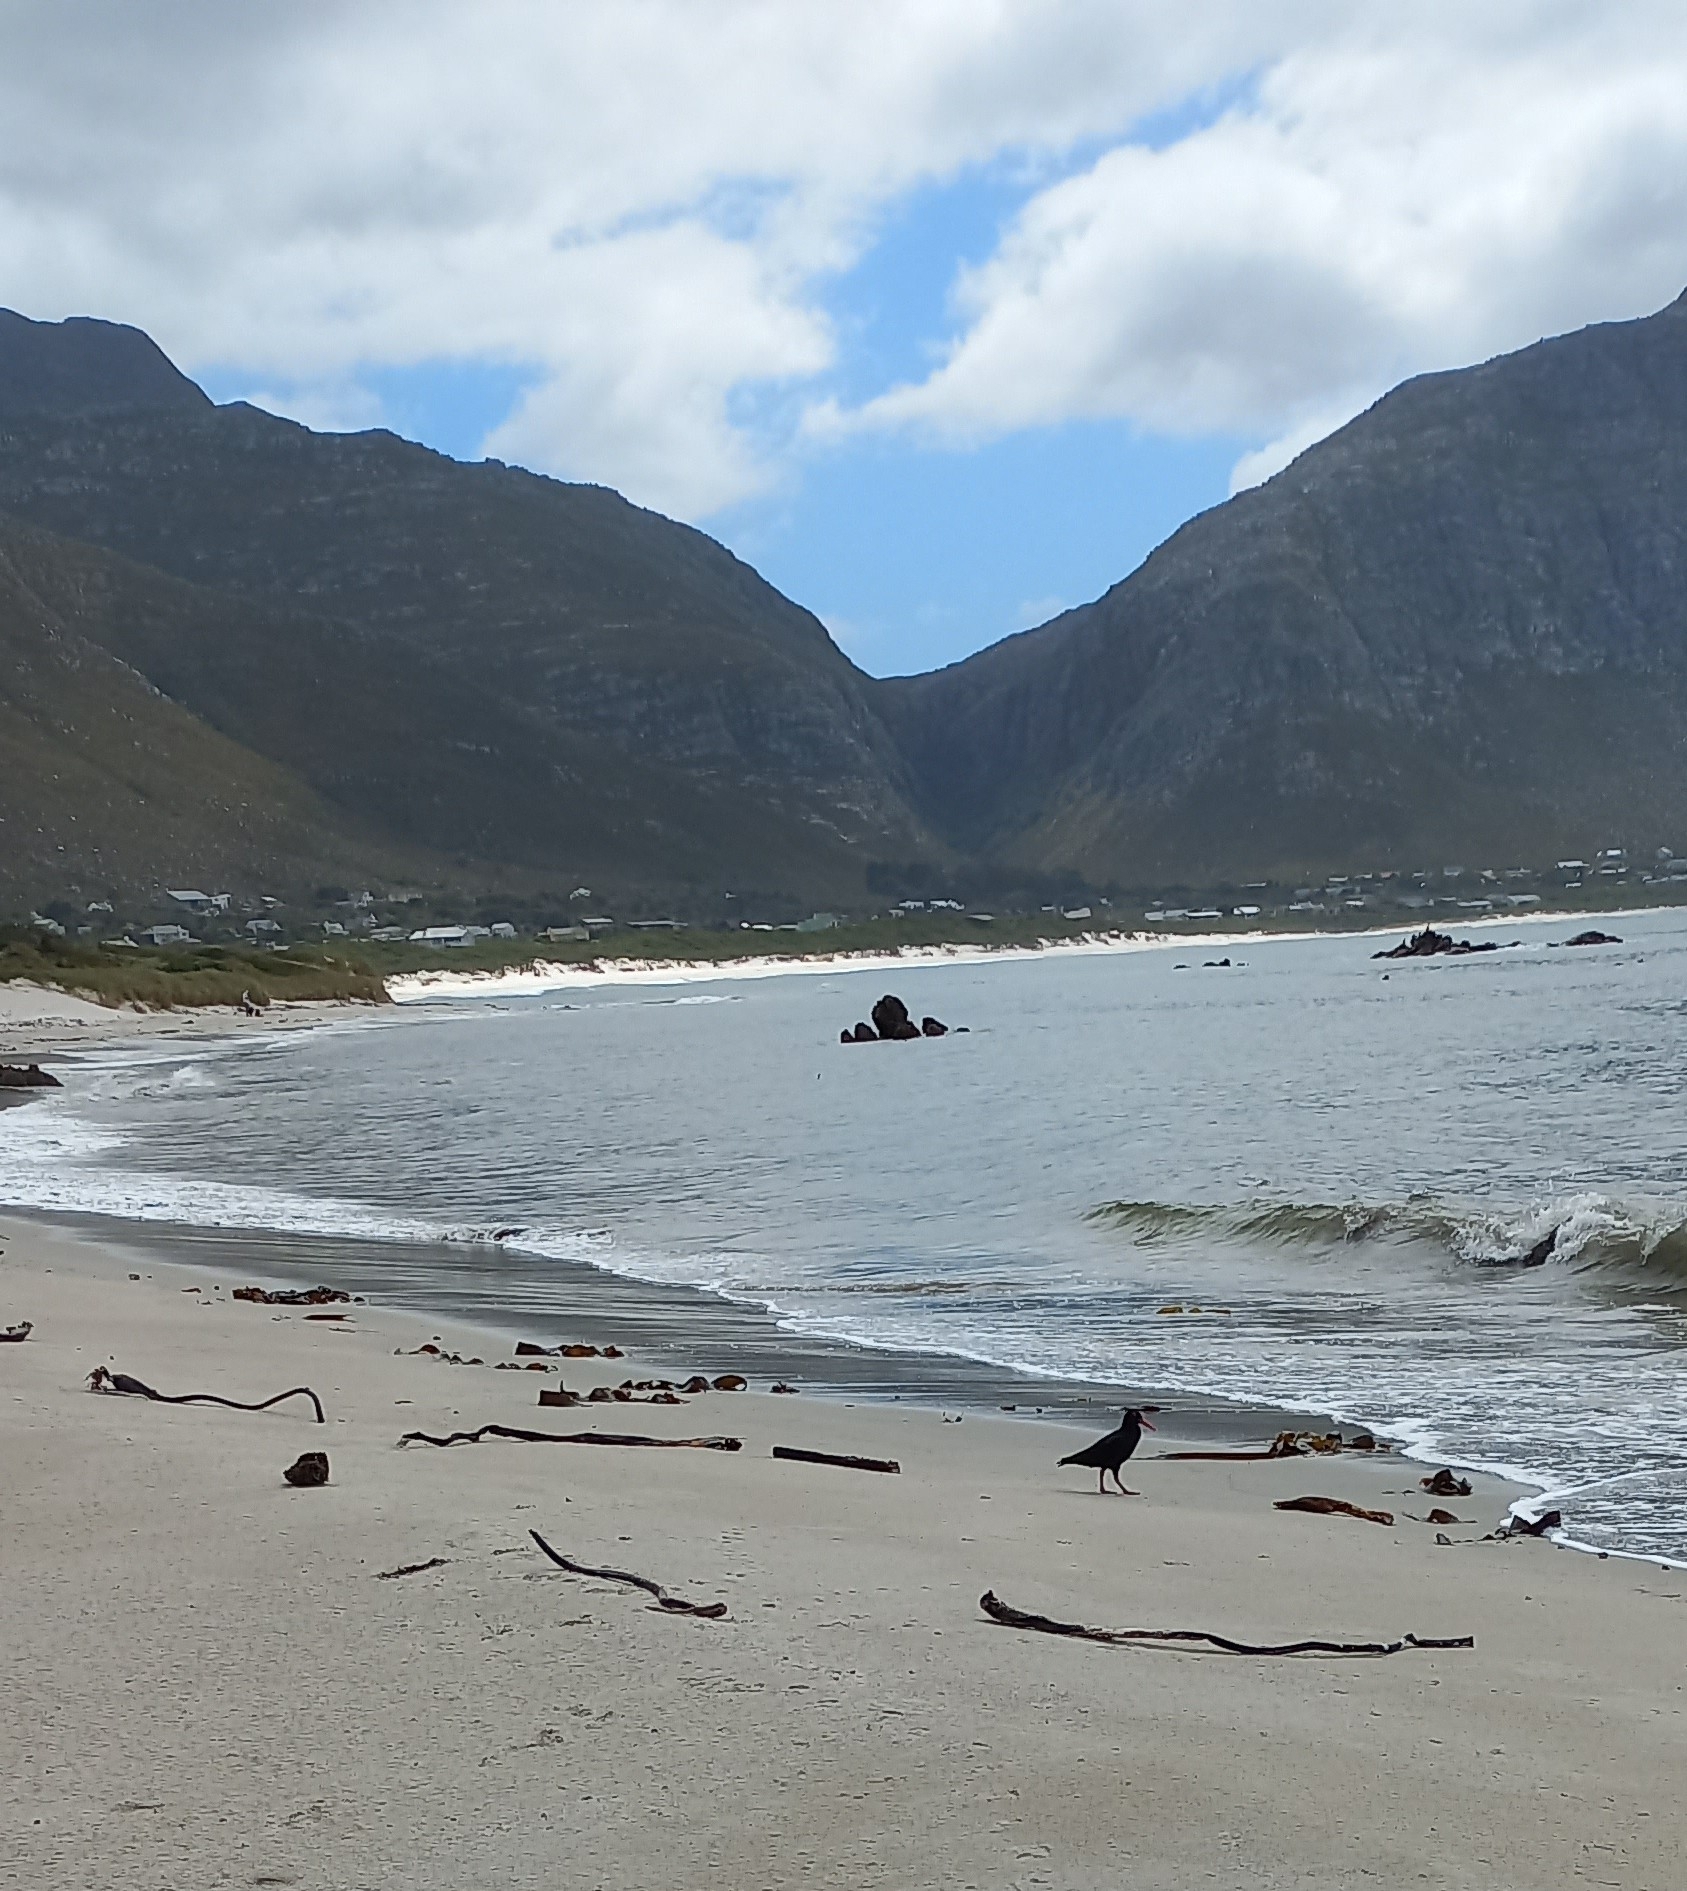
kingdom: Animalia
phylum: Chordata
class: Aves
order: Charadriiformes
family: Haematopodidae
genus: Haematopus
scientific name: Haematopus moquini
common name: African oystercatcher
